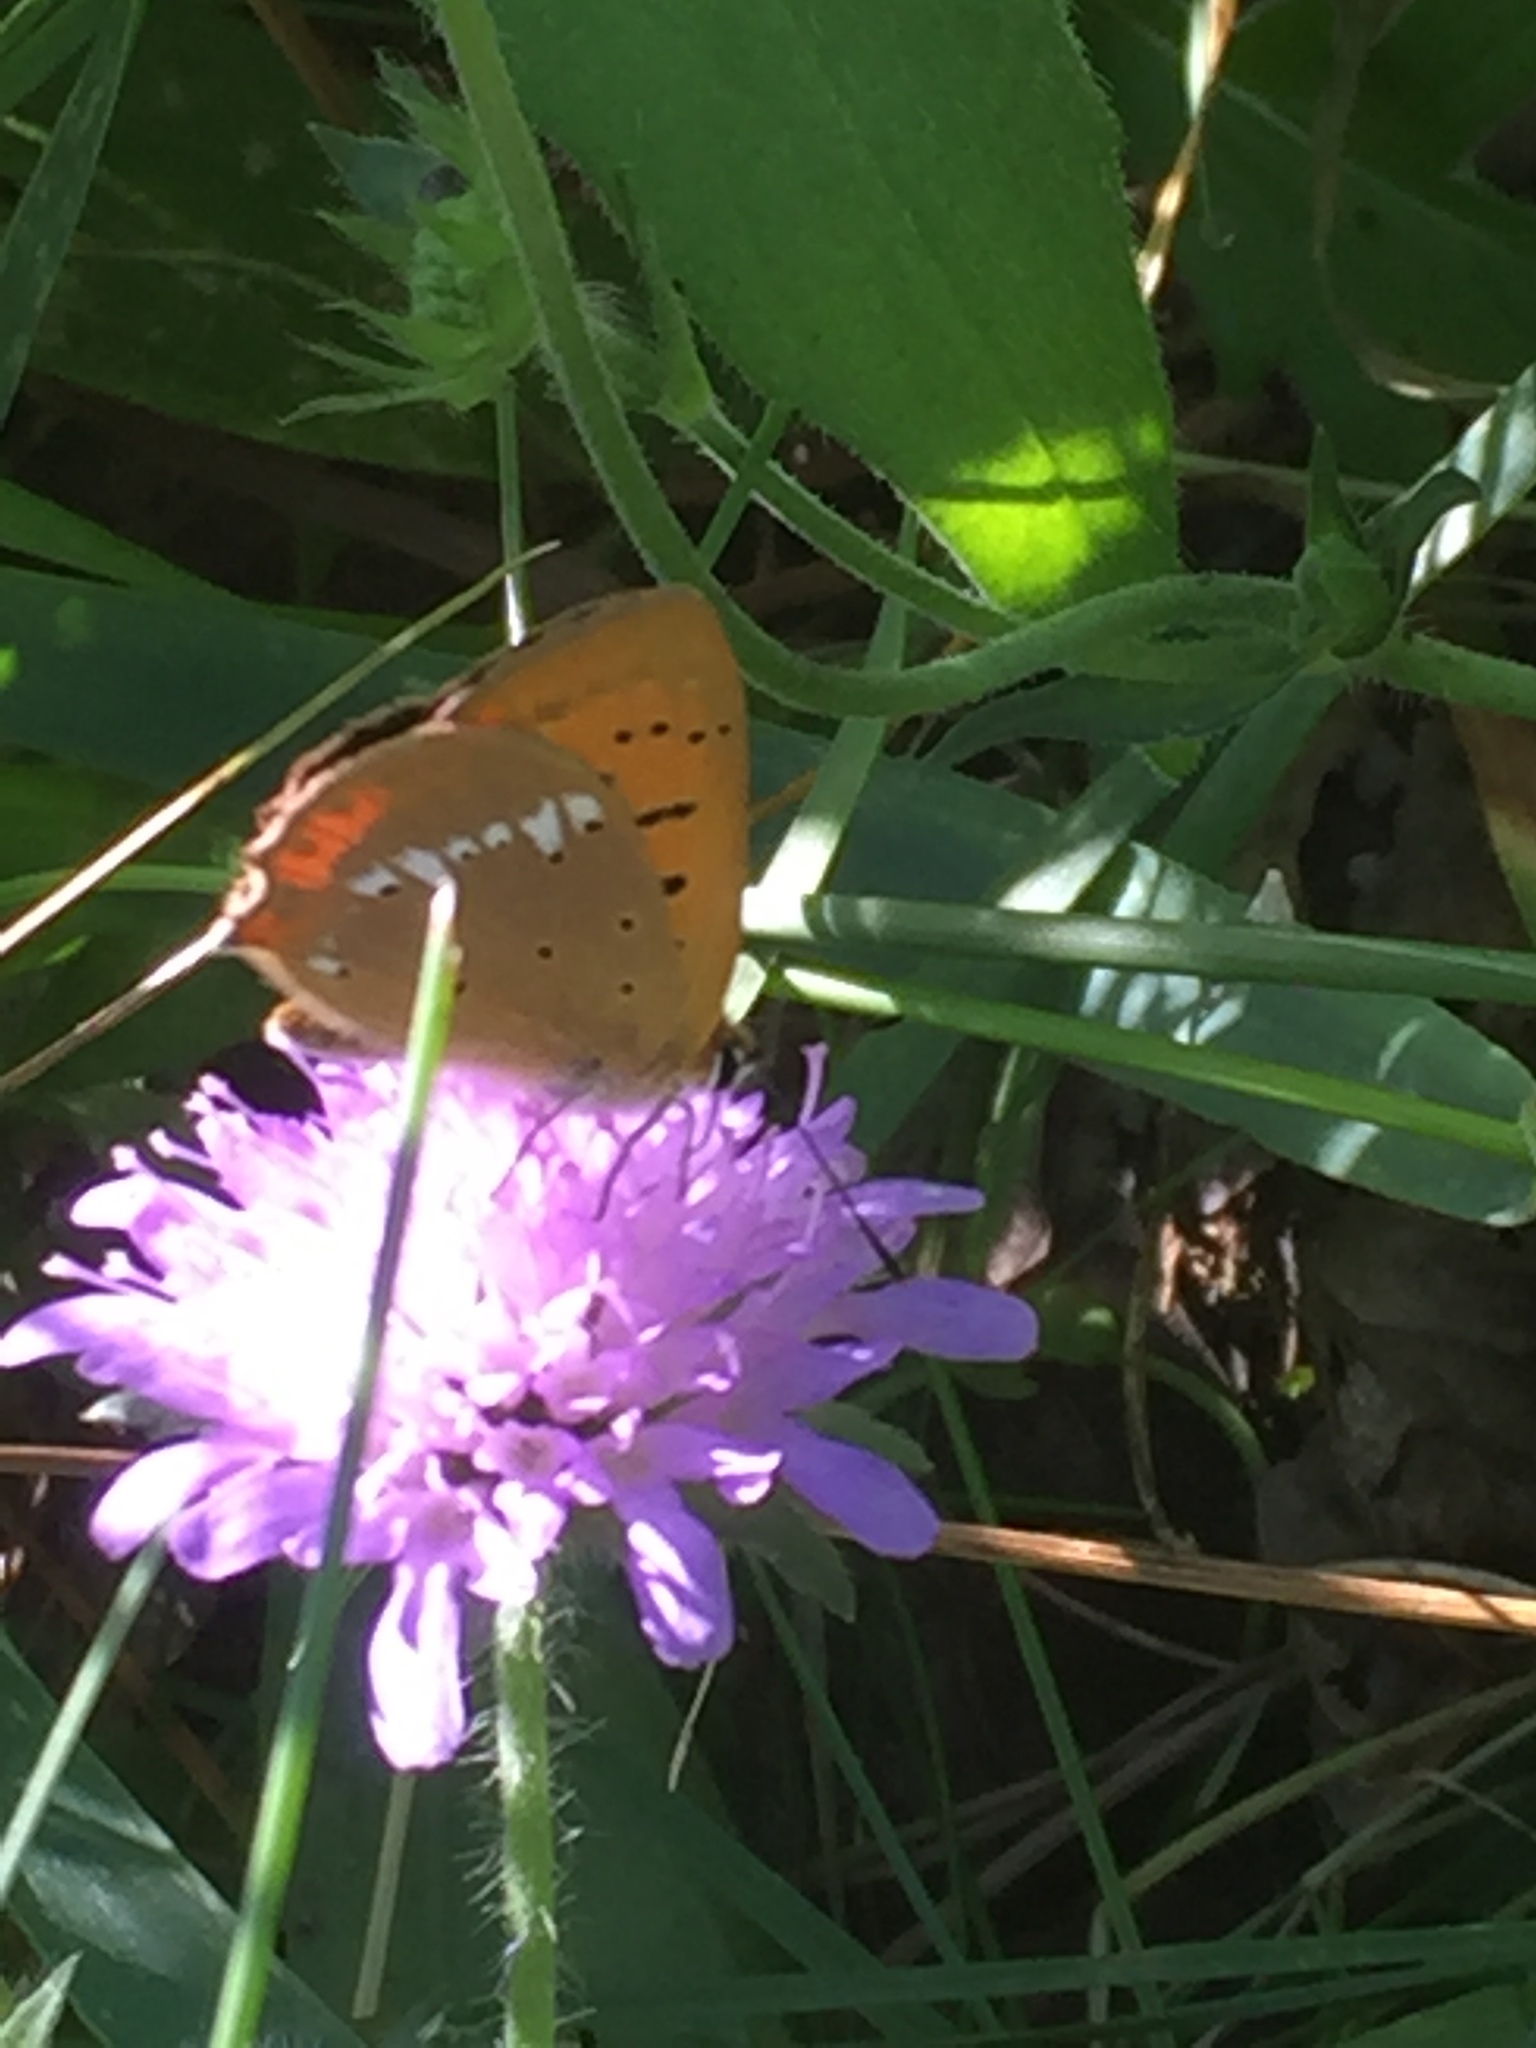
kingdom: Animalia
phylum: Arthropoda
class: Insecta
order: Lepidoptera
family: Lycaenidae
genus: Lycaena
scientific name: Lycaena virgaureae
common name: Scarce copper
